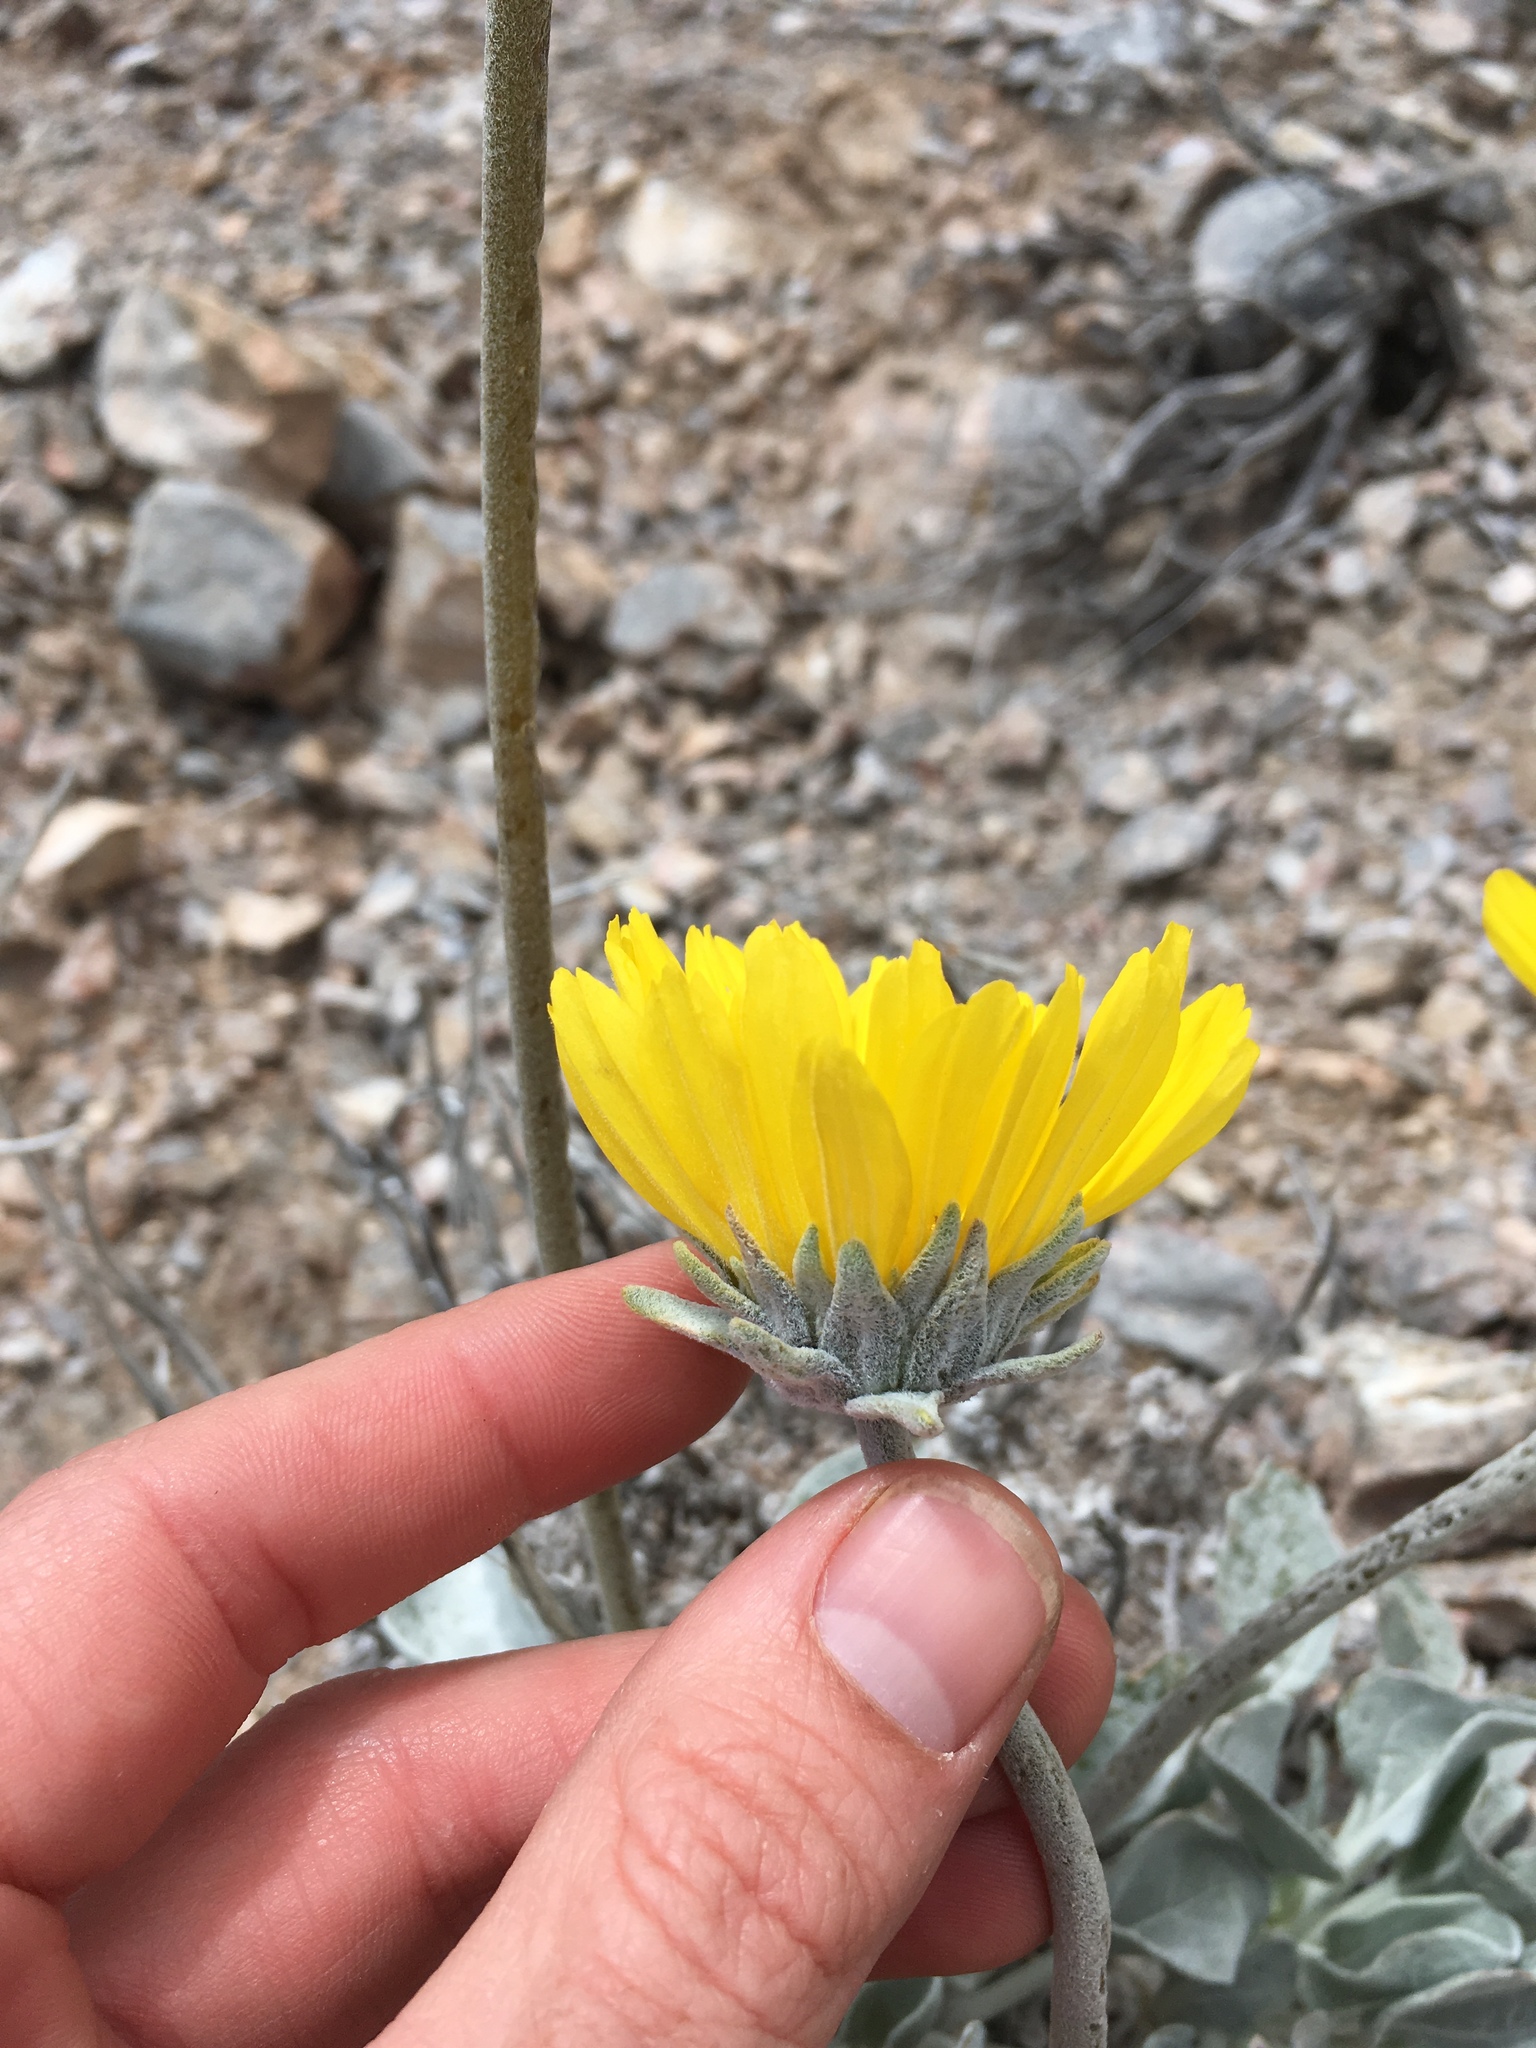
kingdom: Plantae
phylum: Tracheophyta
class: Magnoliopsida
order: Asterales
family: Asteraceae
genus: Enceliopsis
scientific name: Enceliopsis nudicaulis
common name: Naked-stem daisy
